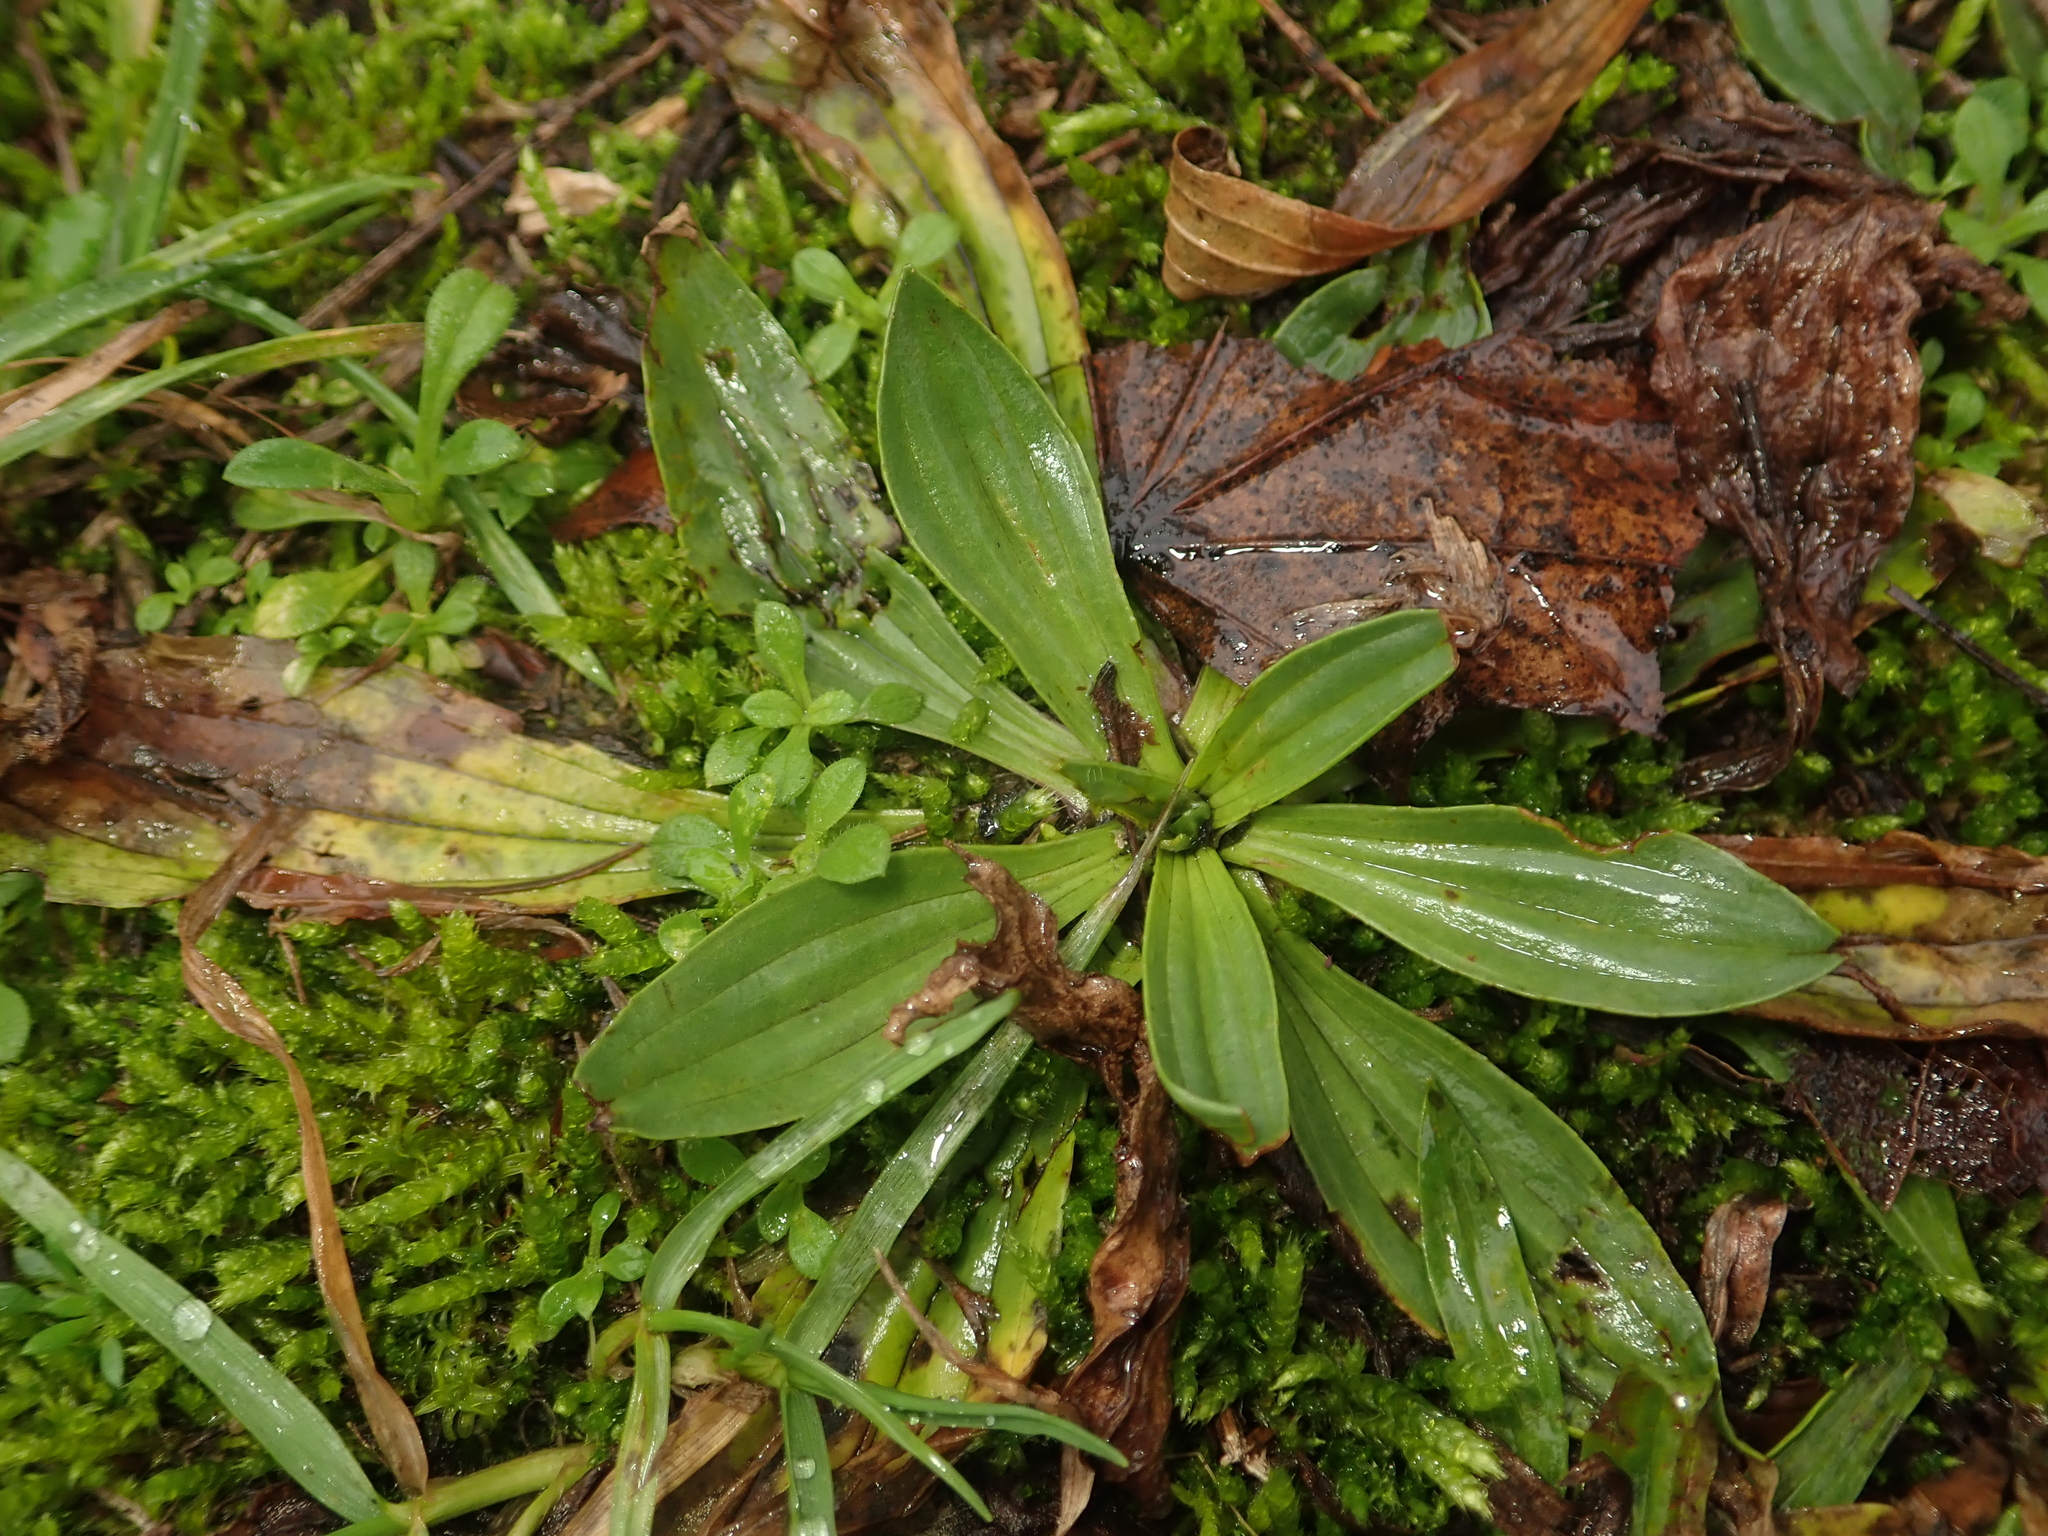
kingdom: Plantae
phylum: Tracheophyta
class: Magnoliopsida
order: Lamiales
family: Plantaginaceae
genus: Plantago
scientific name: Plantago lanceolata
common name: Ribwort plantain
